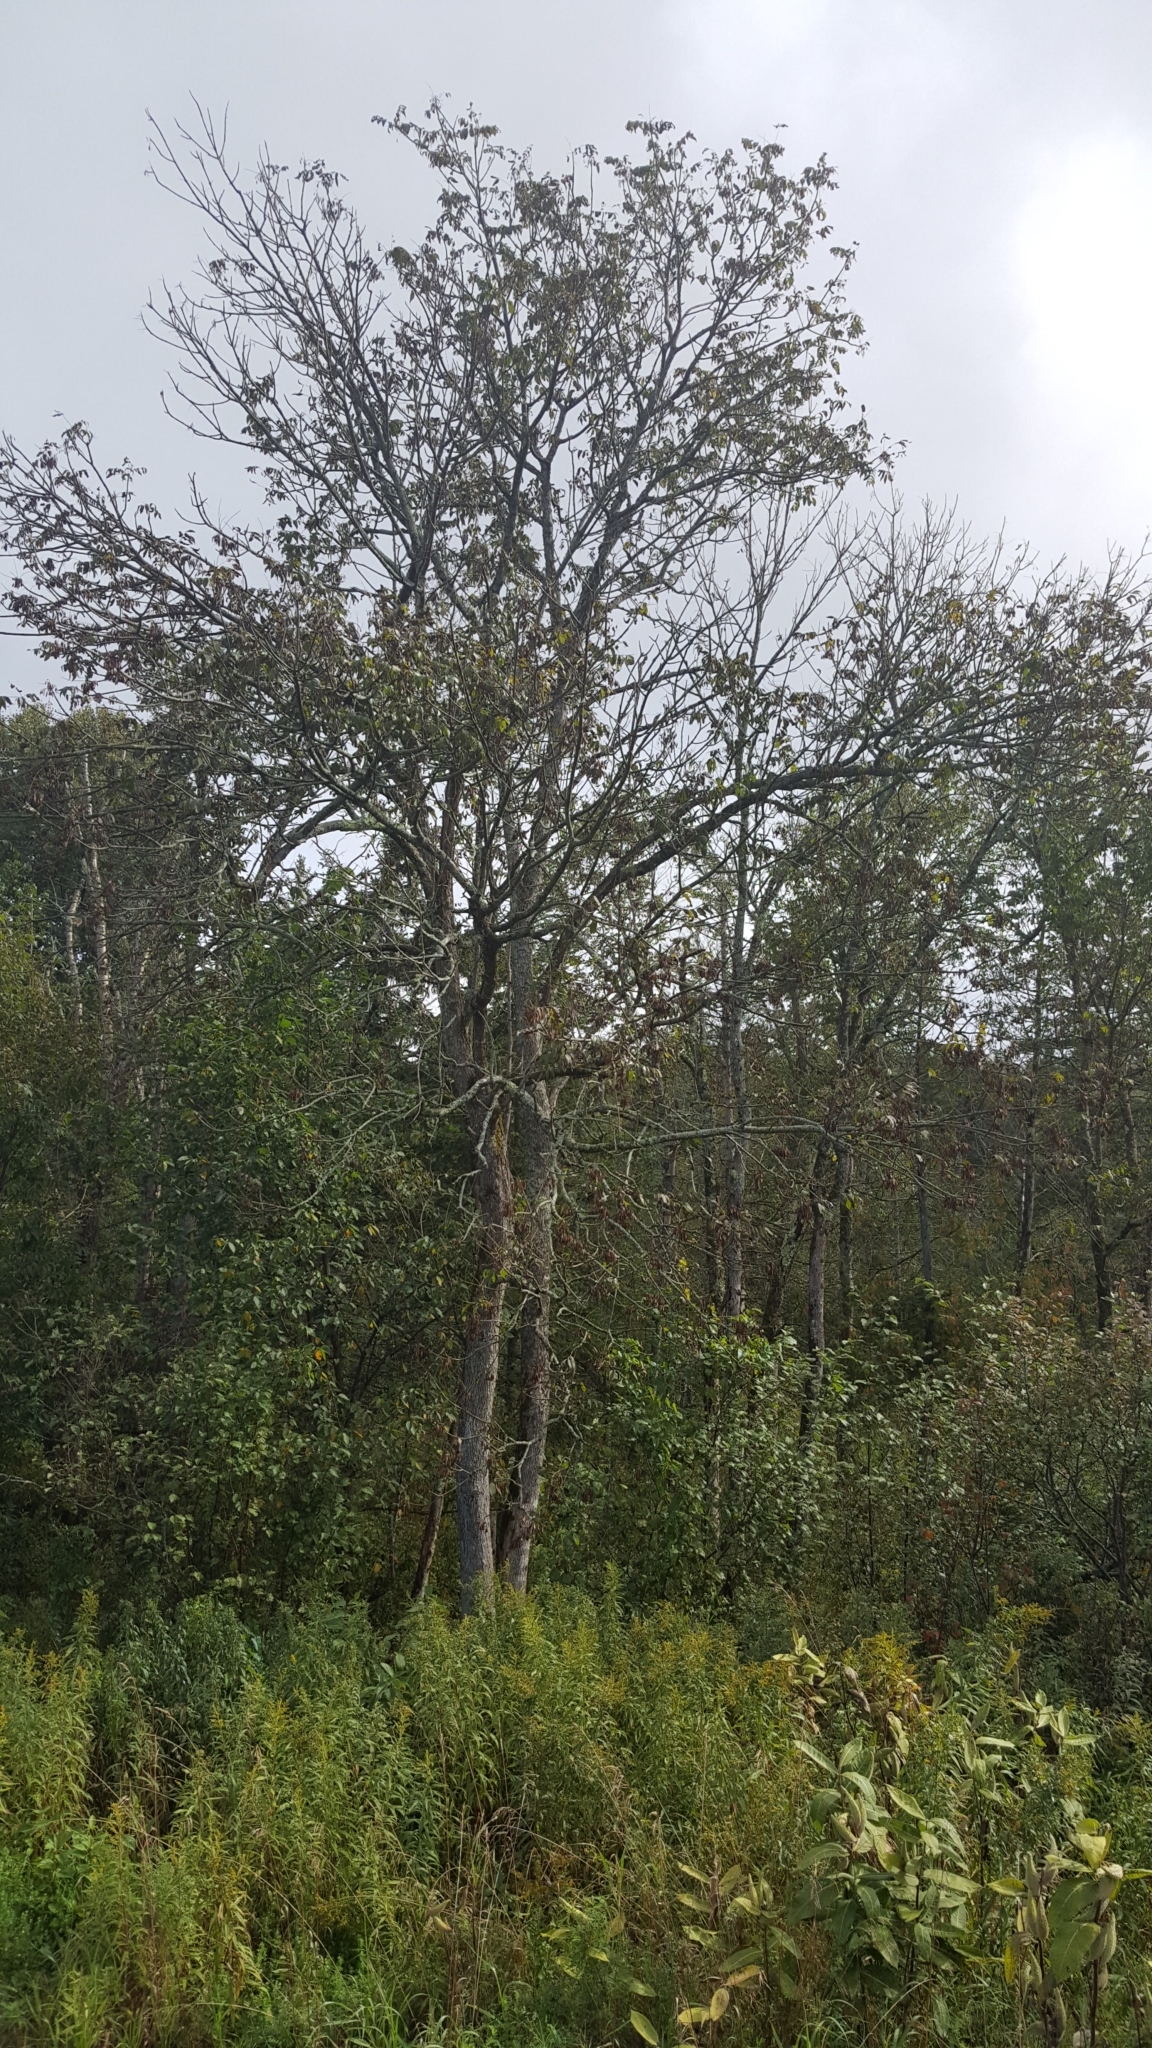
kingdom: Plantae
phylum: Tracheophyta
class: Magnoliopsida
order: Gentianales
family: Apocynaceae
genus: Asclepias
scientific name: Asclepias syriaca
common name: Common milkweed
